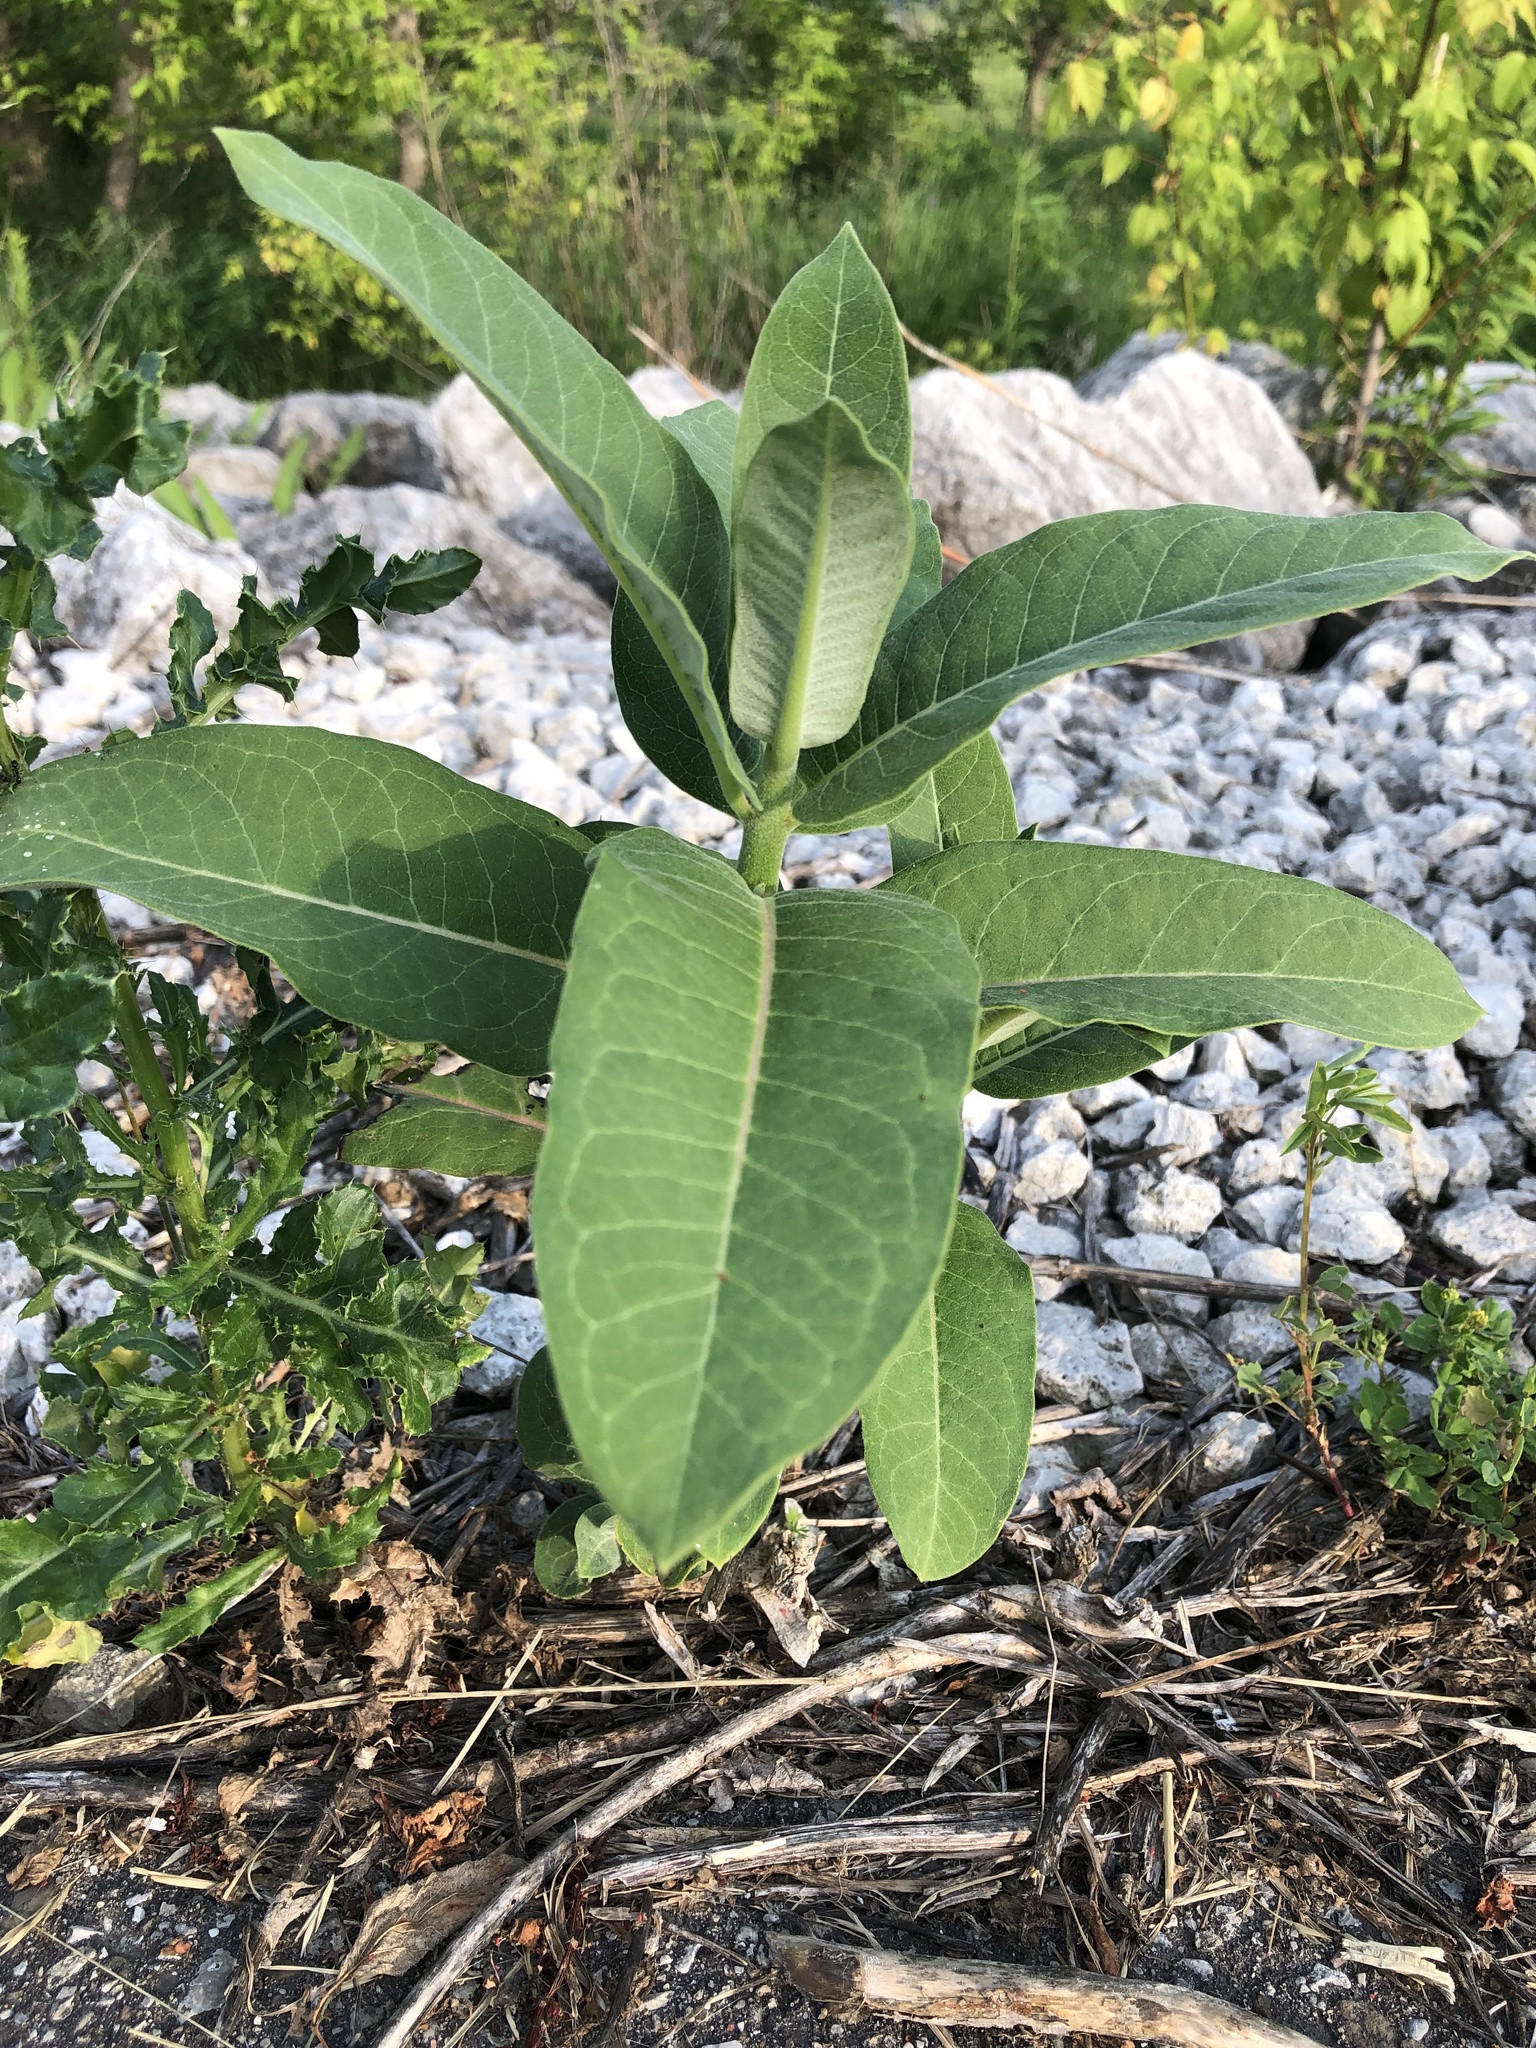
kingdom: Plantae
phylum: Tracheophyta
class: Magnoliopsida
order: Gentianales
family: Apocynaceae
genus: Asclepias
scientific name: Asclepias syriaca
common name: Common milkweed
